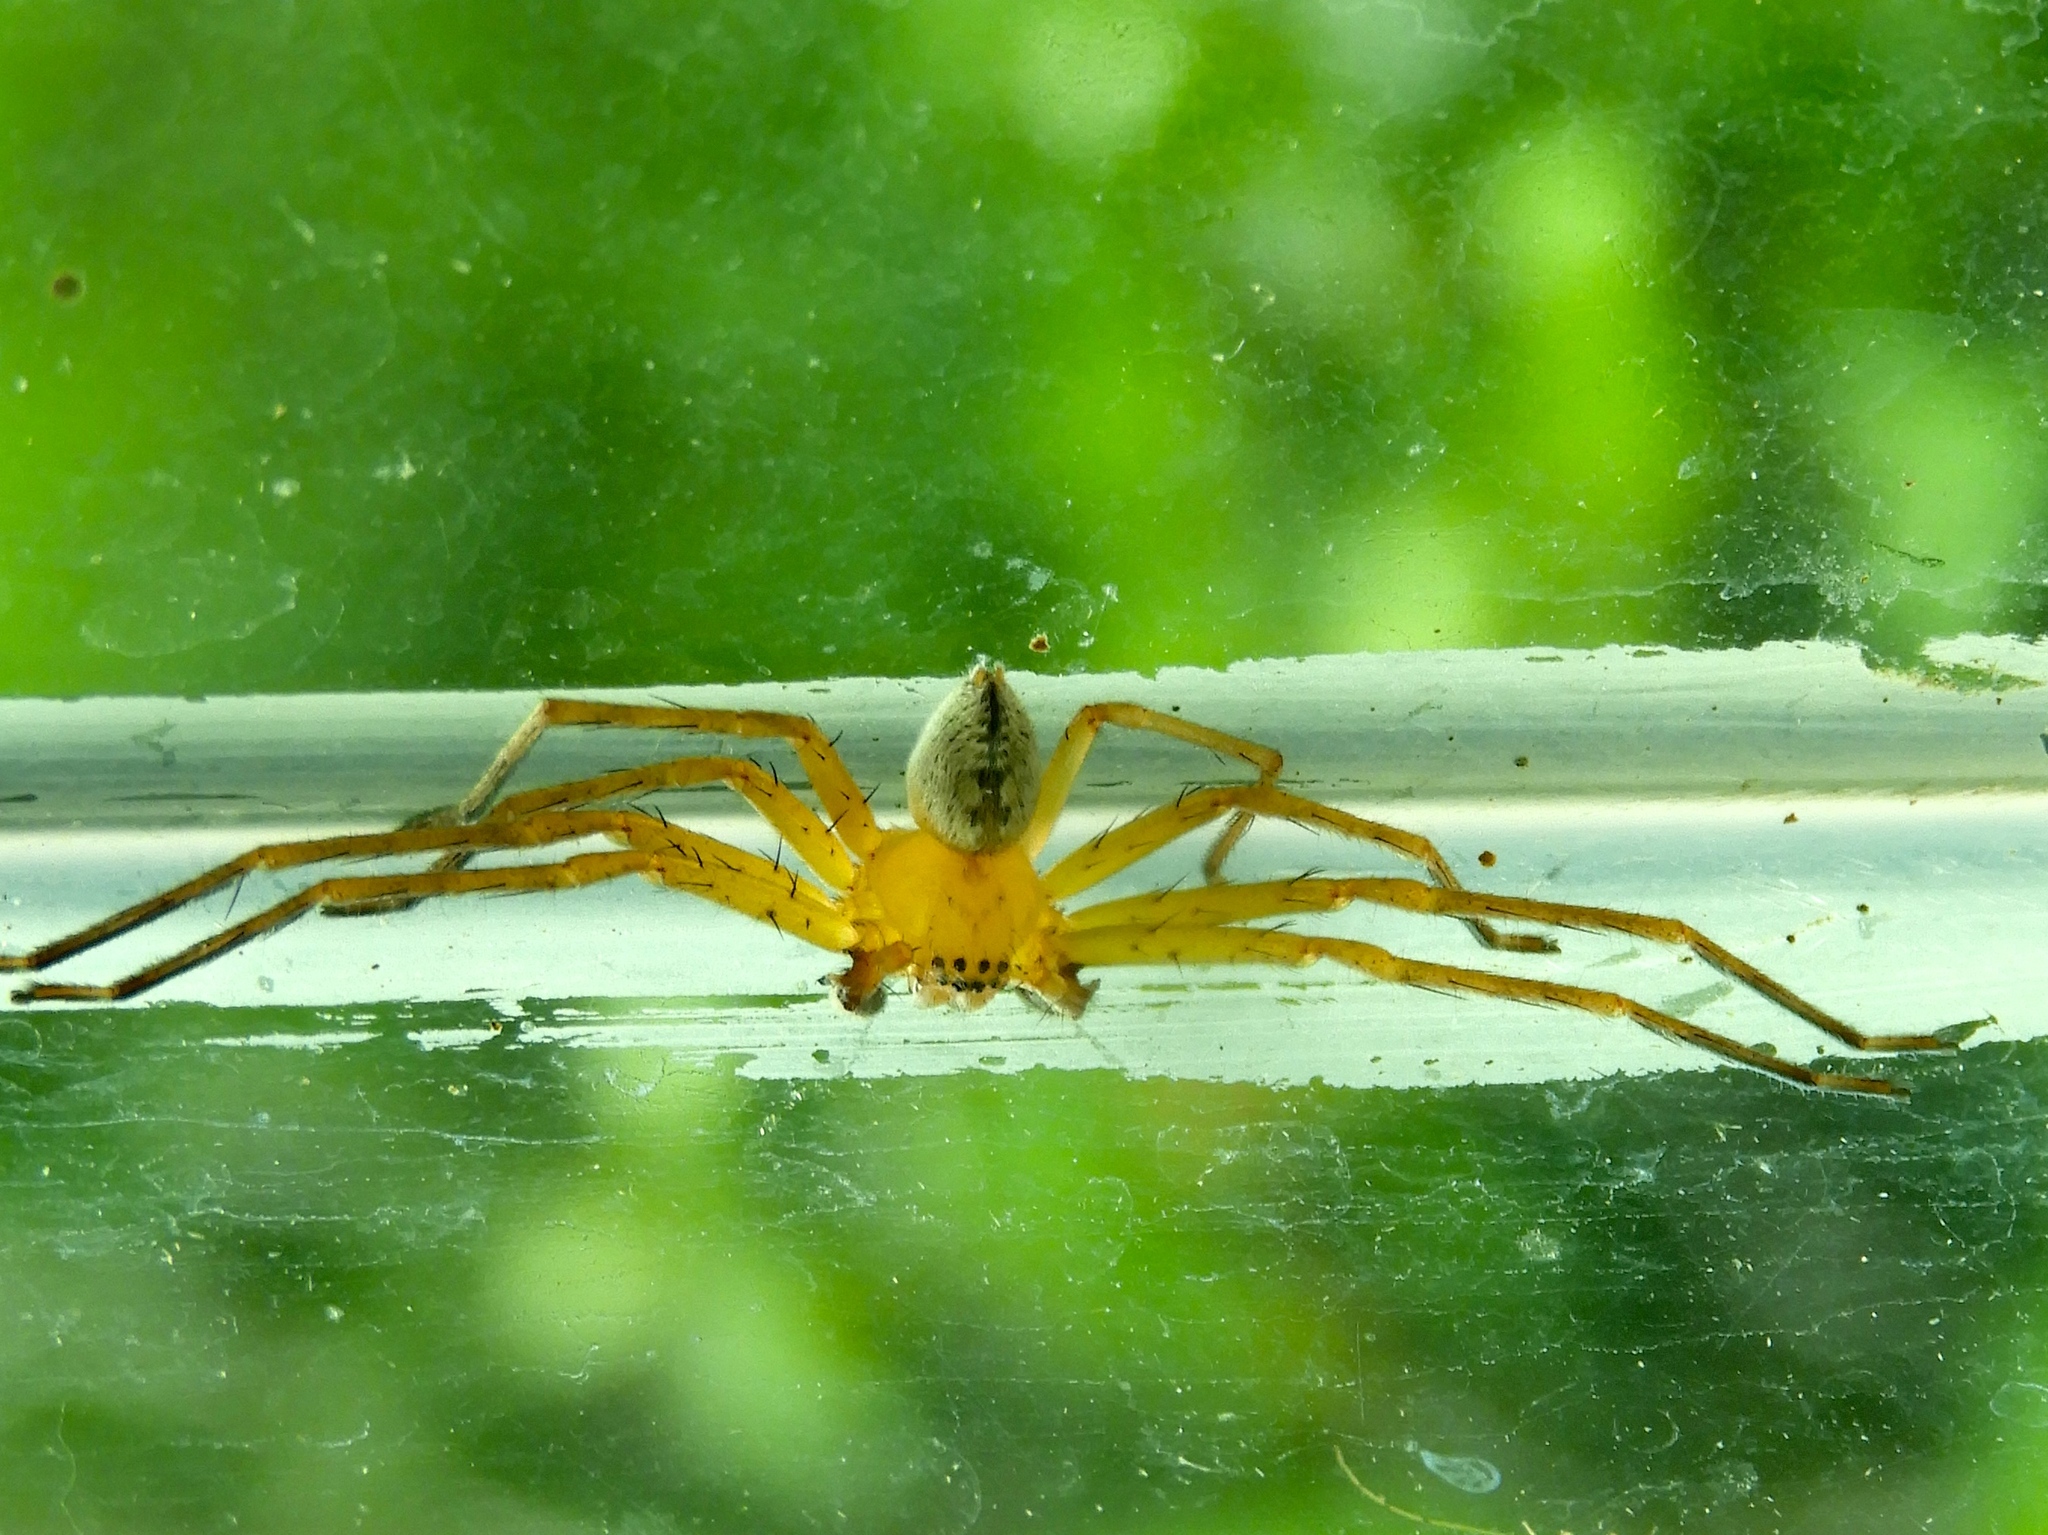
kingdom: Animalia
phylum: Arthropoda
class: Arachnida
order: Araneae
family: Sparassidae
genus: Curicaberis
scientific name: Curicaberis culiacan
